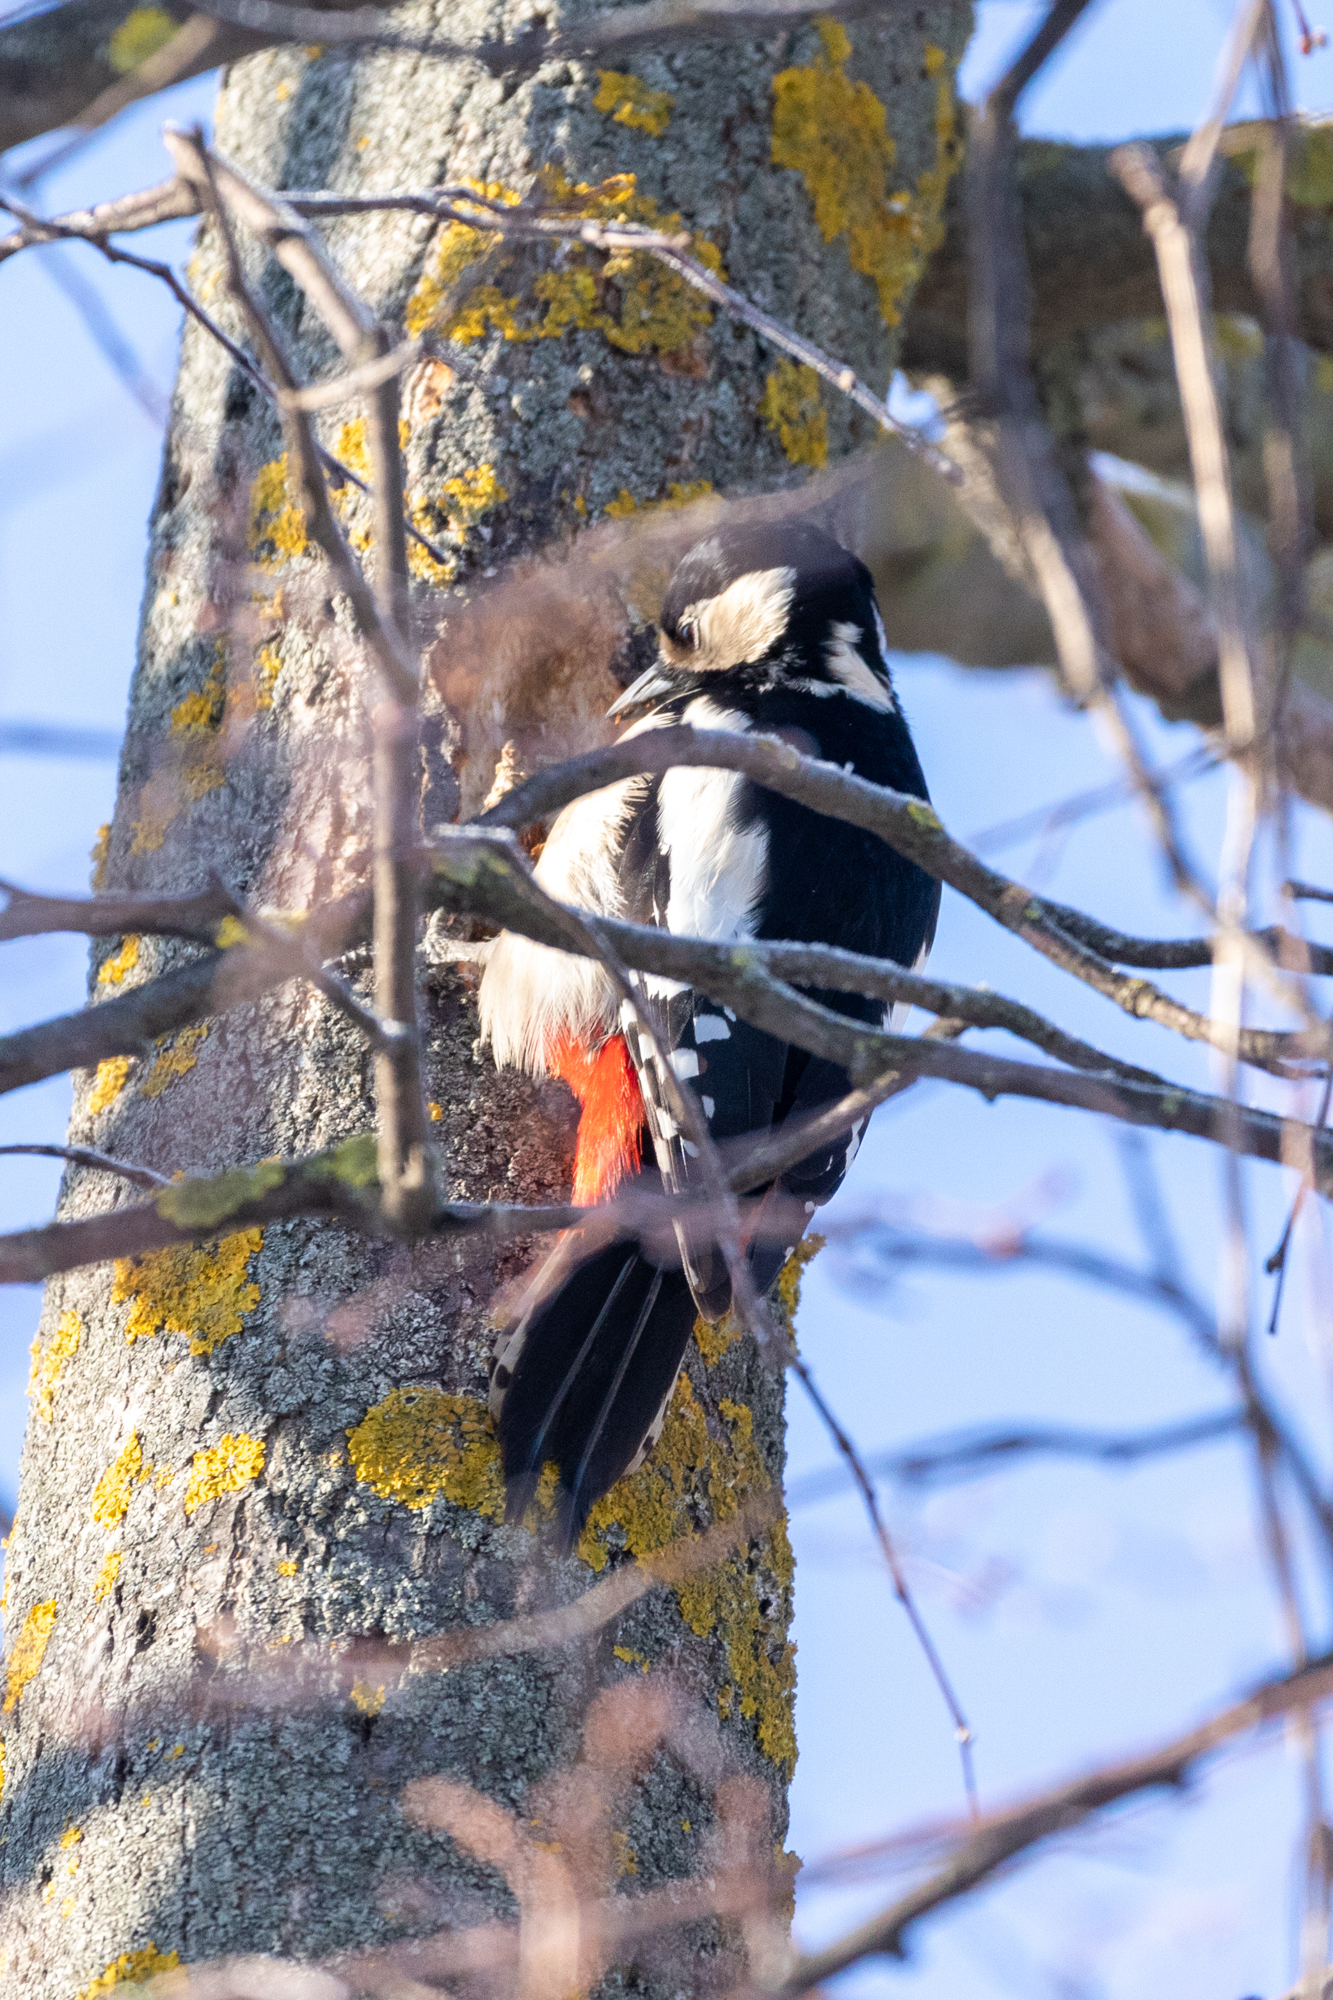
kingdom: Animalia
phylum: Chordata
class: Aves
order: Piciformes
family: Picidae
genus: Dendrocopos
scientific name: Dendrocopos major
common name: Great spotted woodpecker
